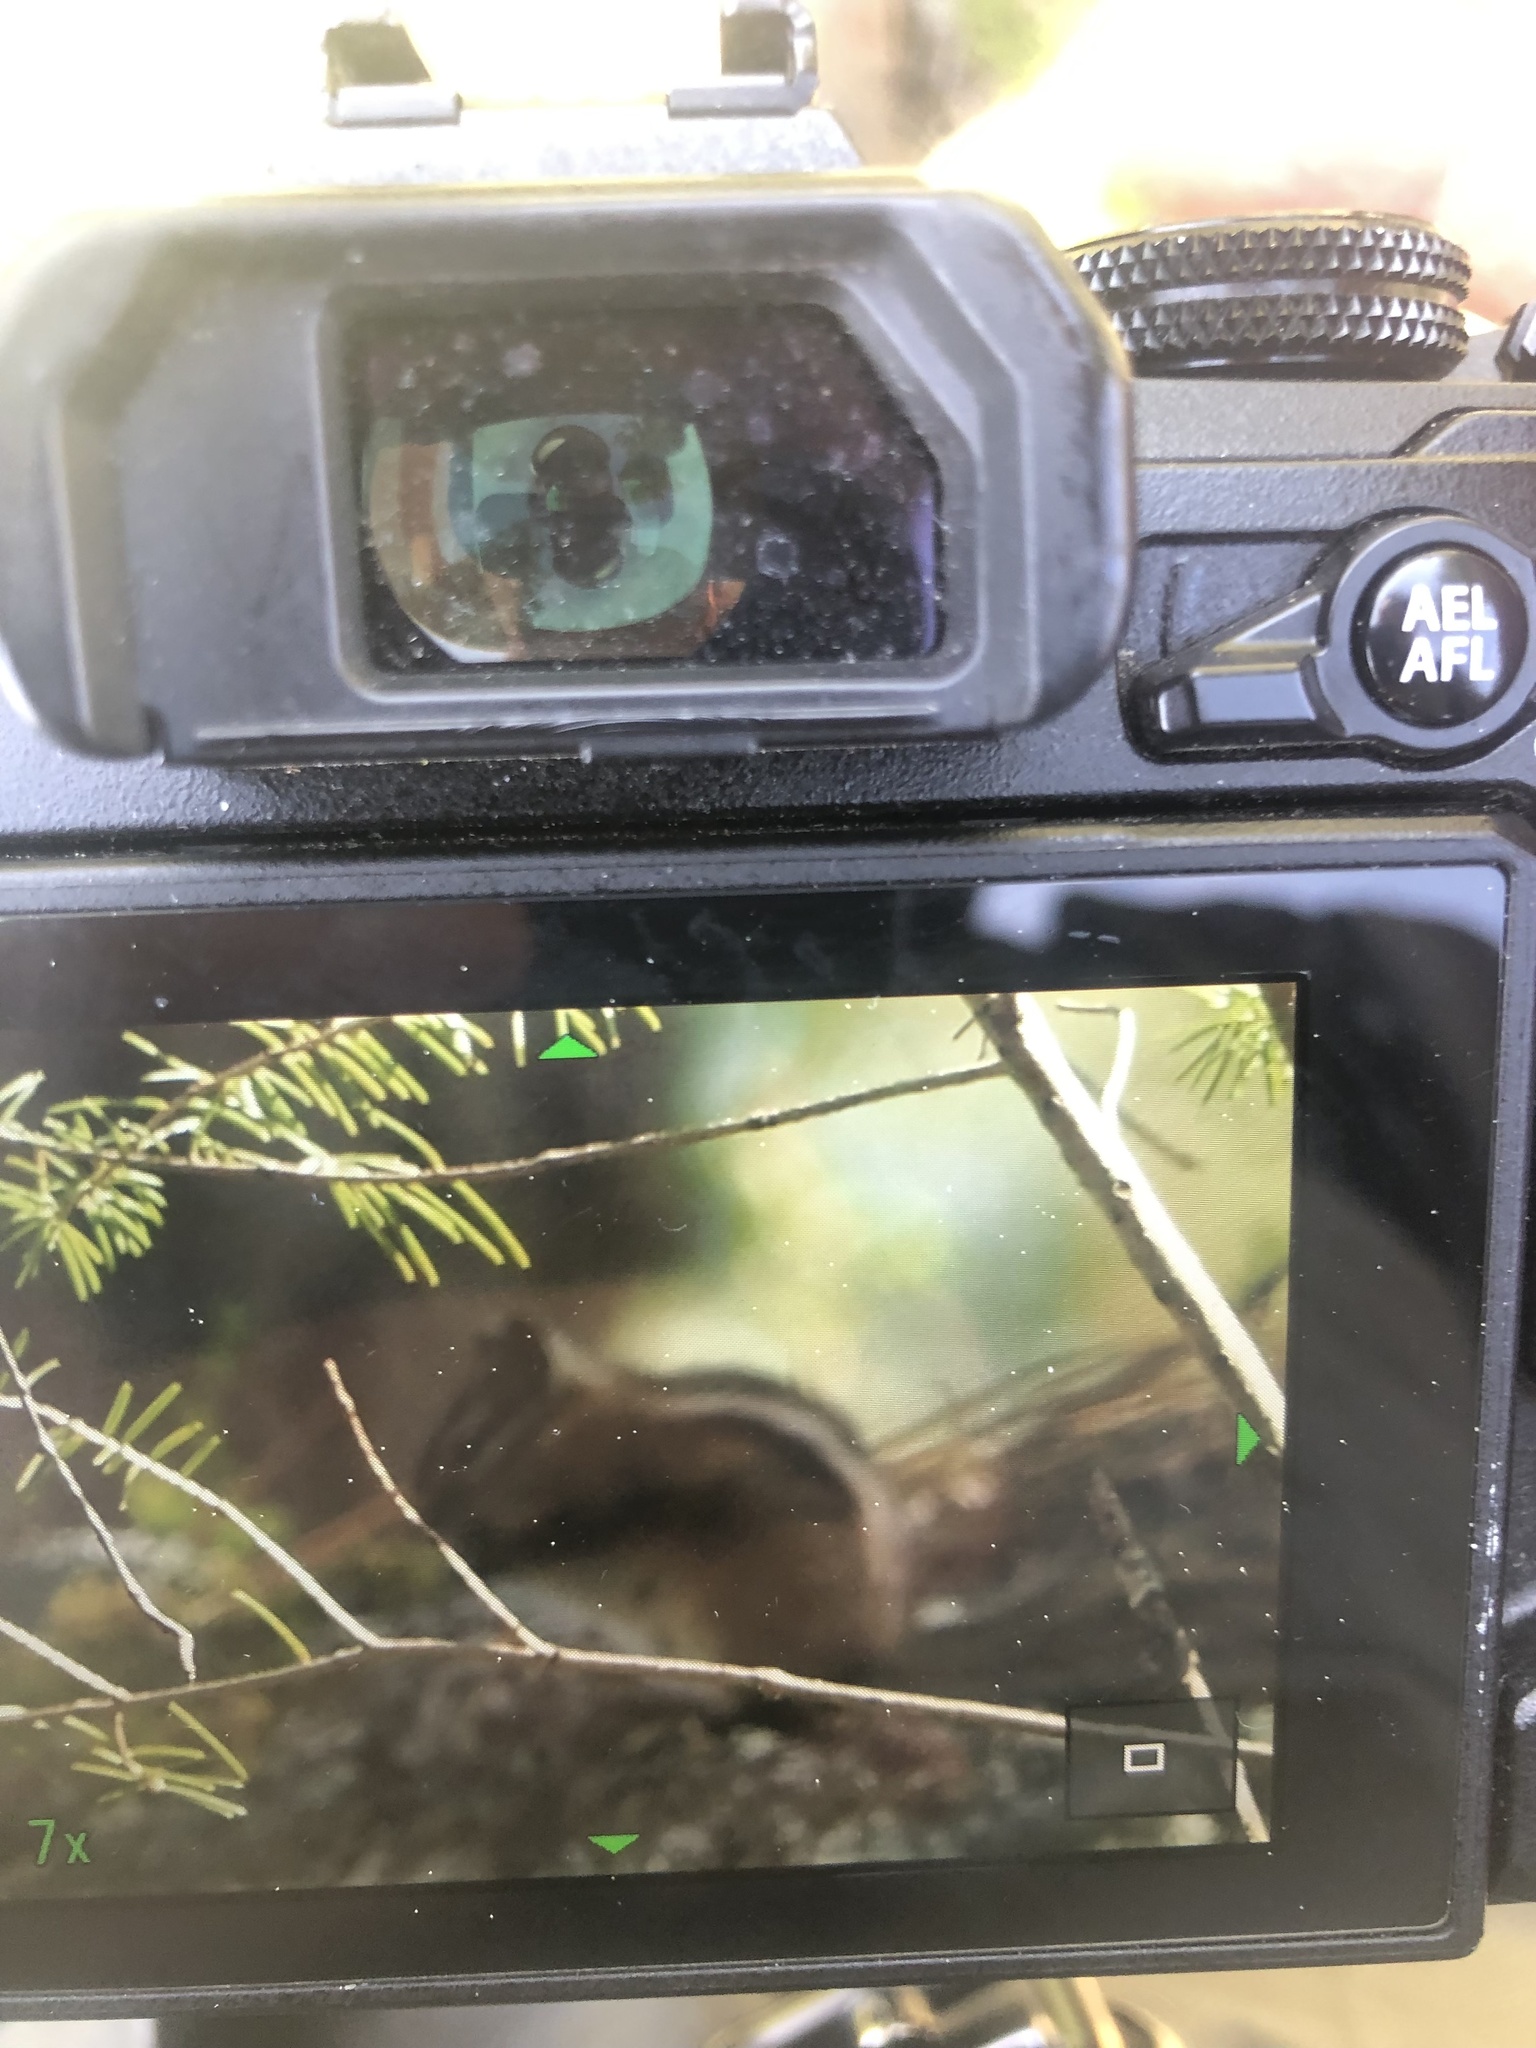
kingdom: Animalia
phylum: Chordata
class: Mammalia
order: Rodentia
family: Sciuridae
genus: Tamias
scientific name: Tamias amoenus
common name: Yellow-pine chipmunk
